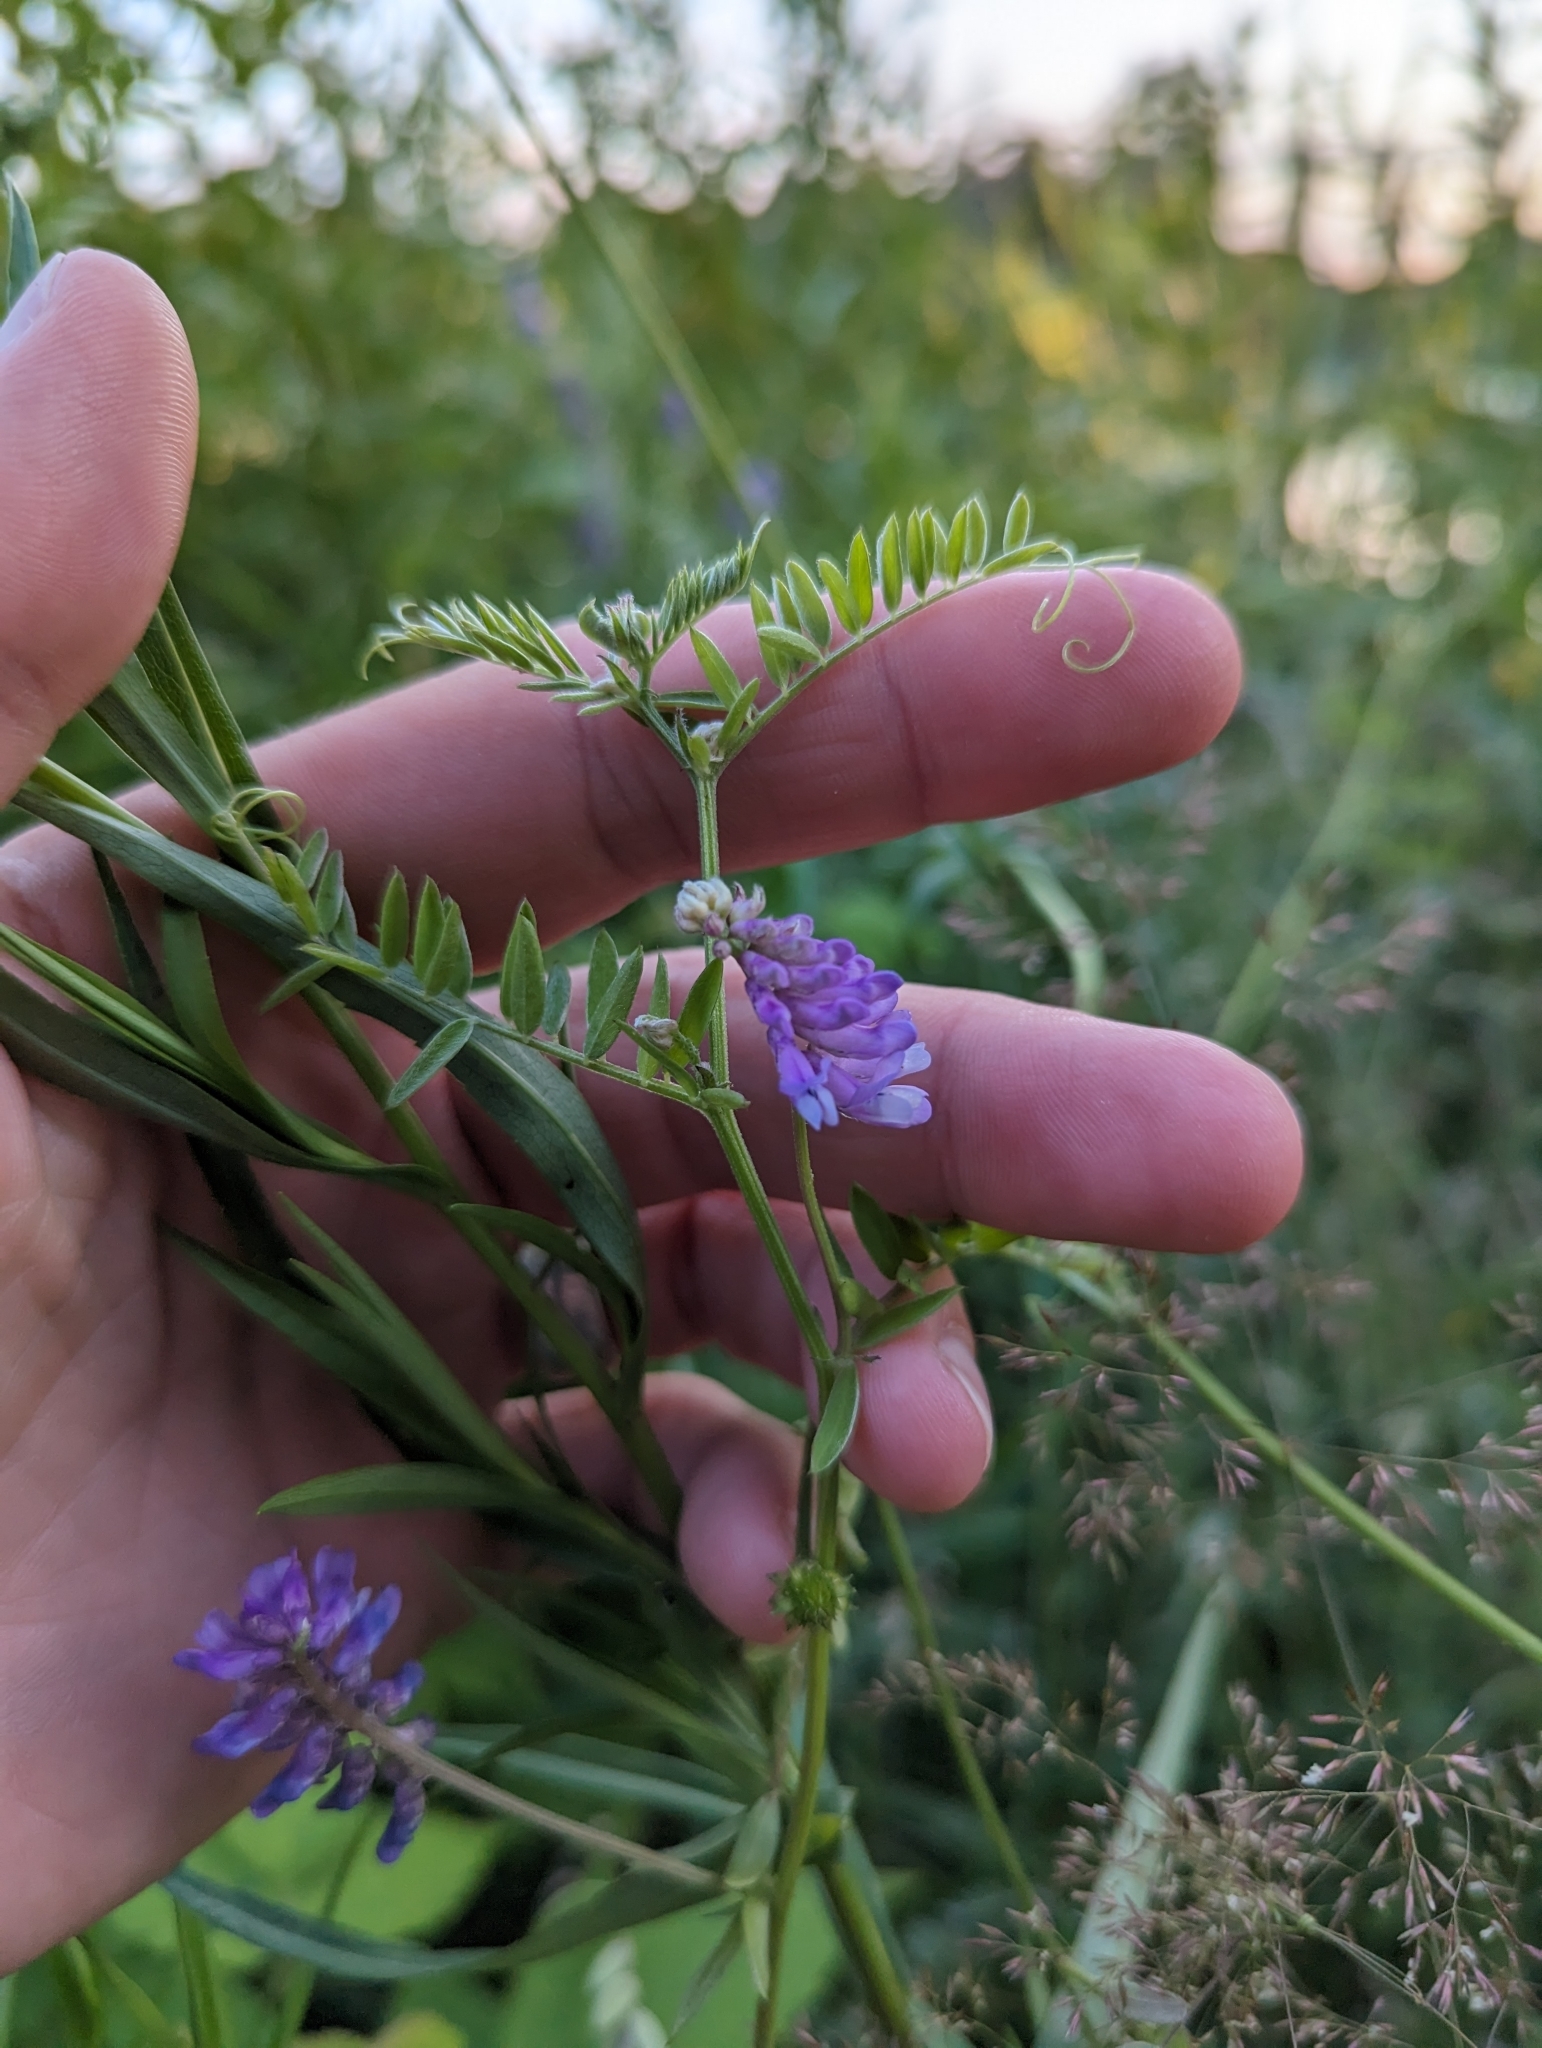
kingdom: Plantae
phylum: Tracheophyta
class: Magnoliopsida
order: Fabales
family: Fabaceae
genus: Vicia
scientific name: Vicia cracca
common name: Bird vetch
